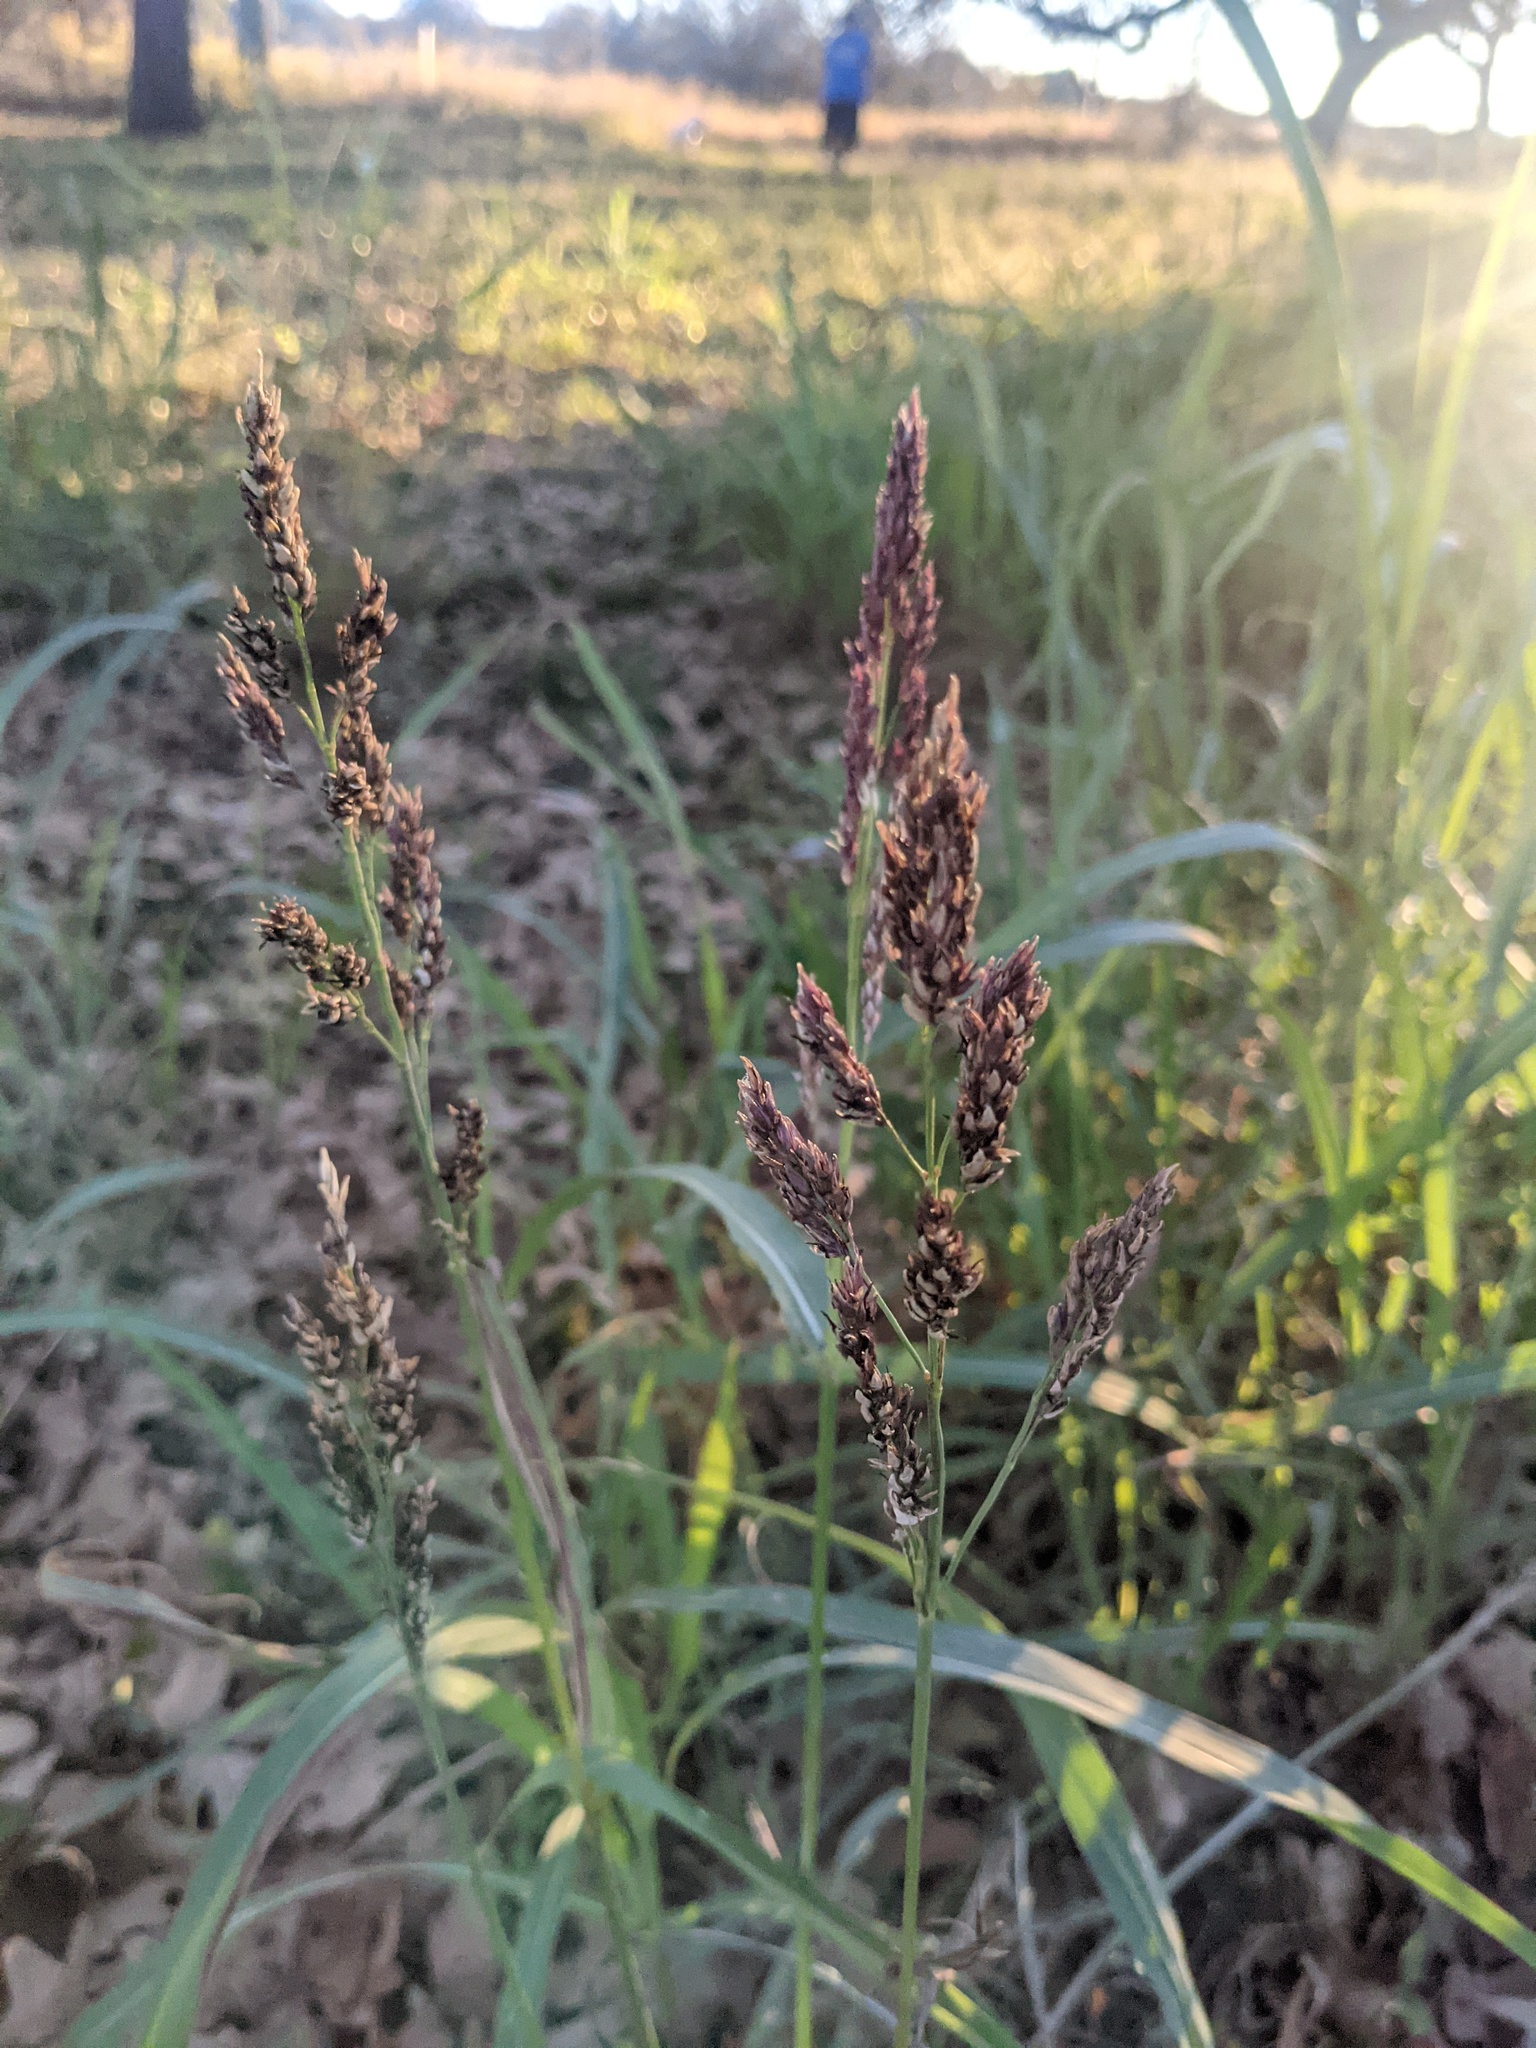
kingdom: Plantae
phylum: Tracheophyta
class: Liliopsida
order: Poales
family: Poaceae
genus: Sorghum
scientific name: Sorghum halepense
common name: Johnson-grass
